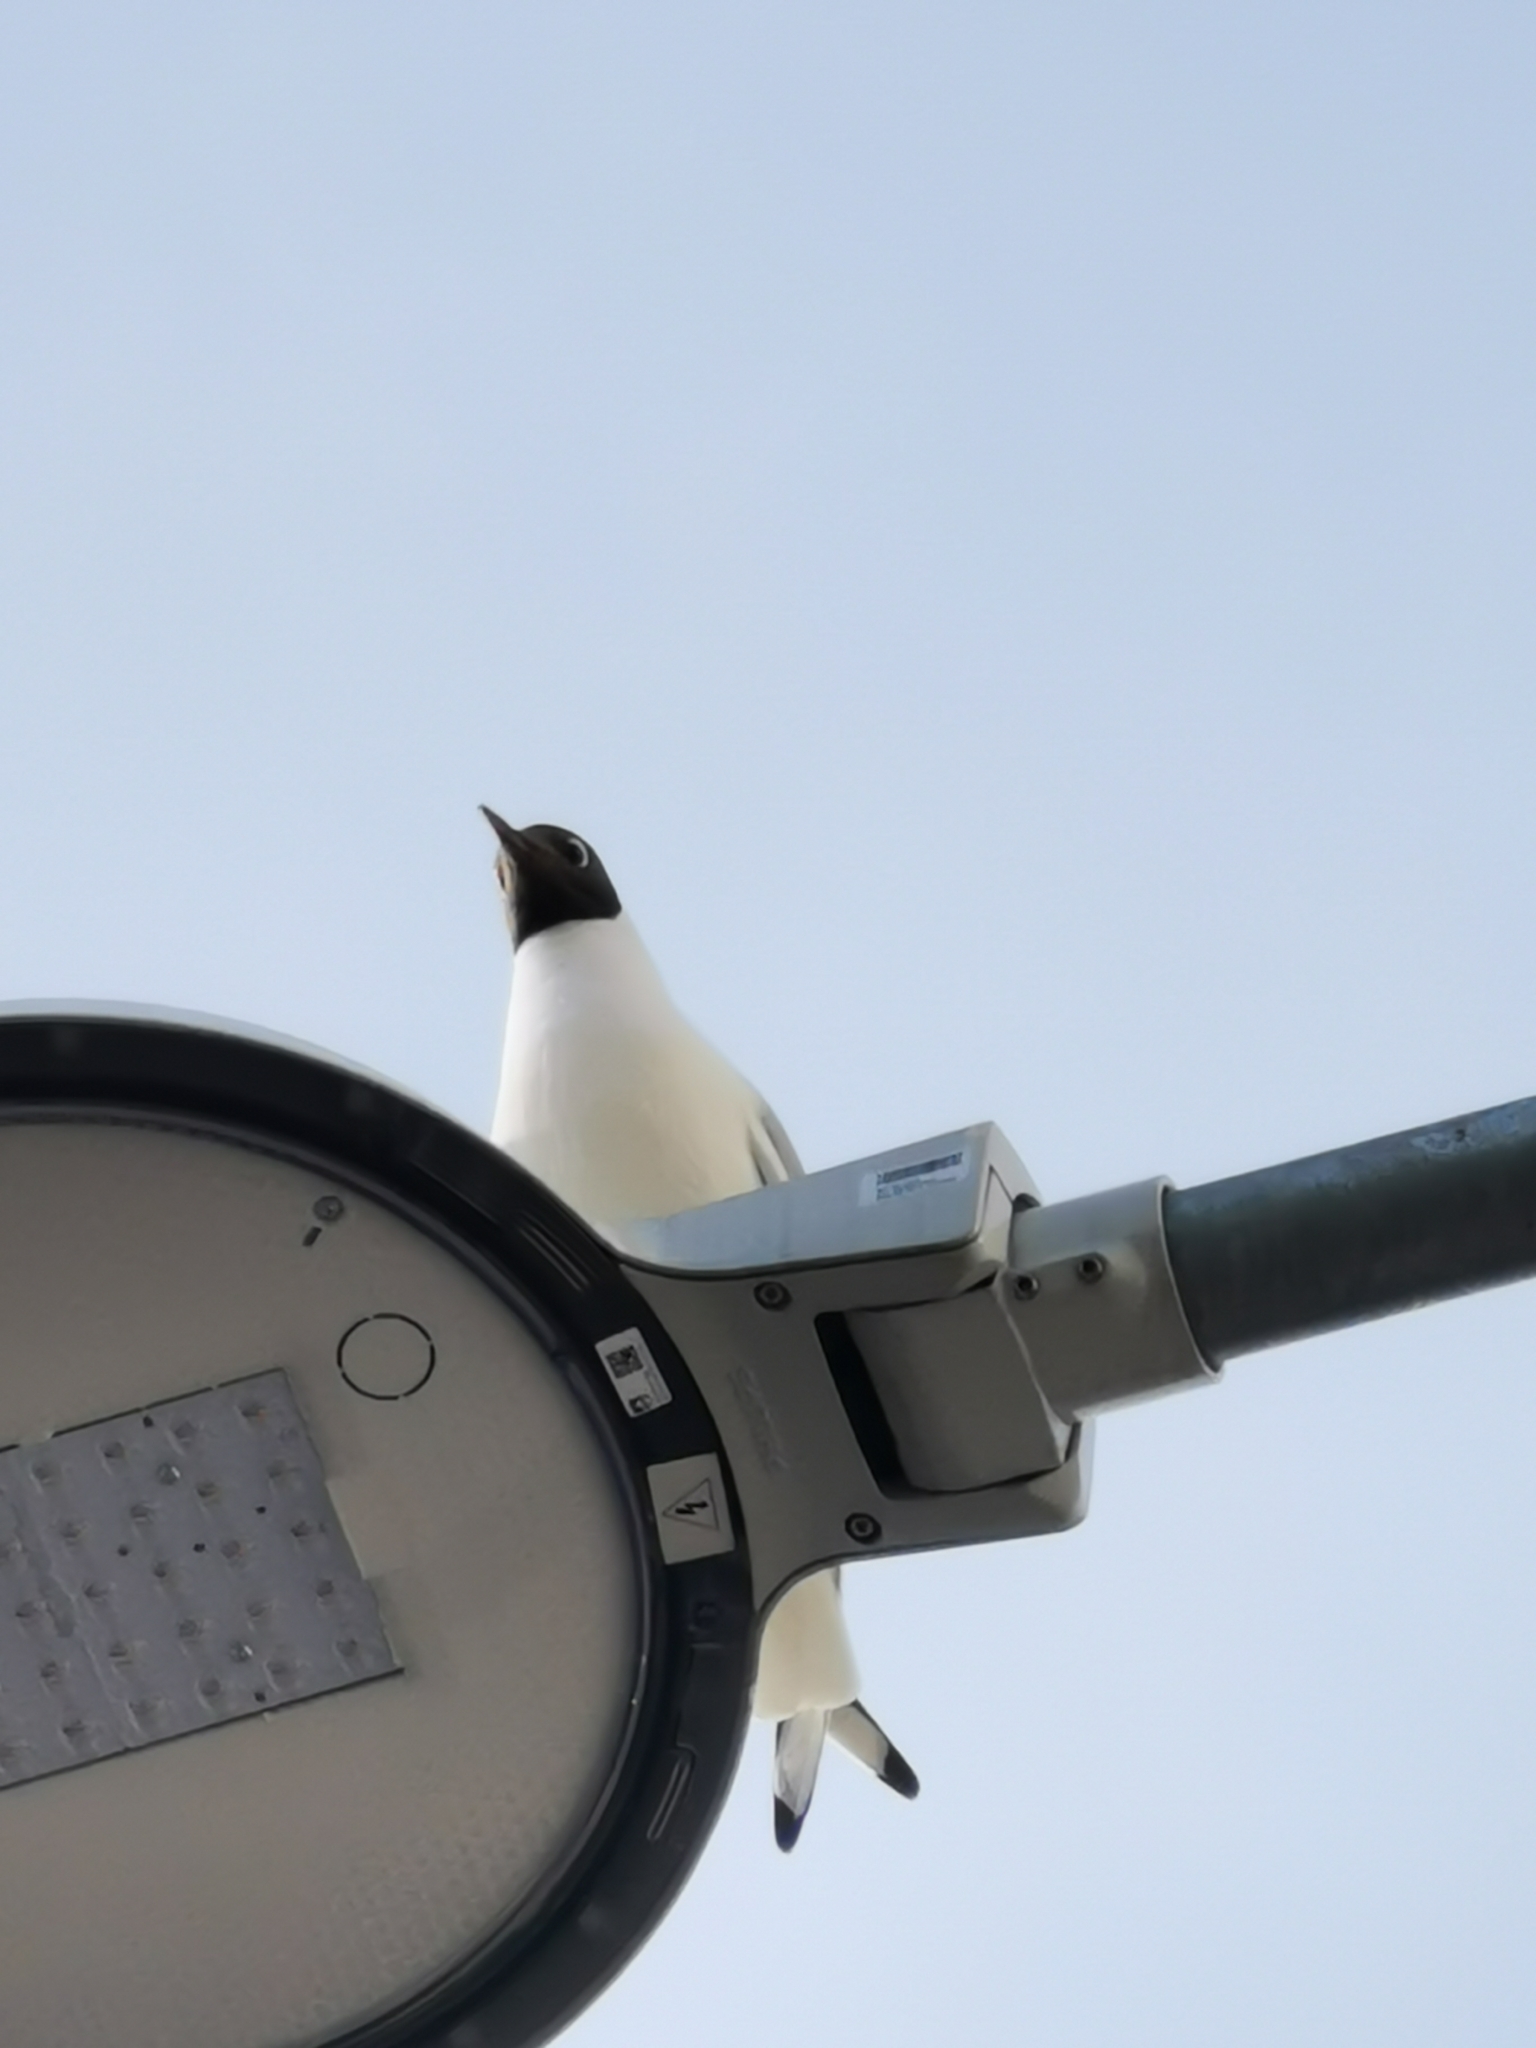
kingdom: Animalia
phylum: Chordata
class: Aves
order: Charadriiformes
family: Laridae
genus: Chroicocephalus
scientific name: Chroicocephalus ridibundus
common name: Black-headed gull
